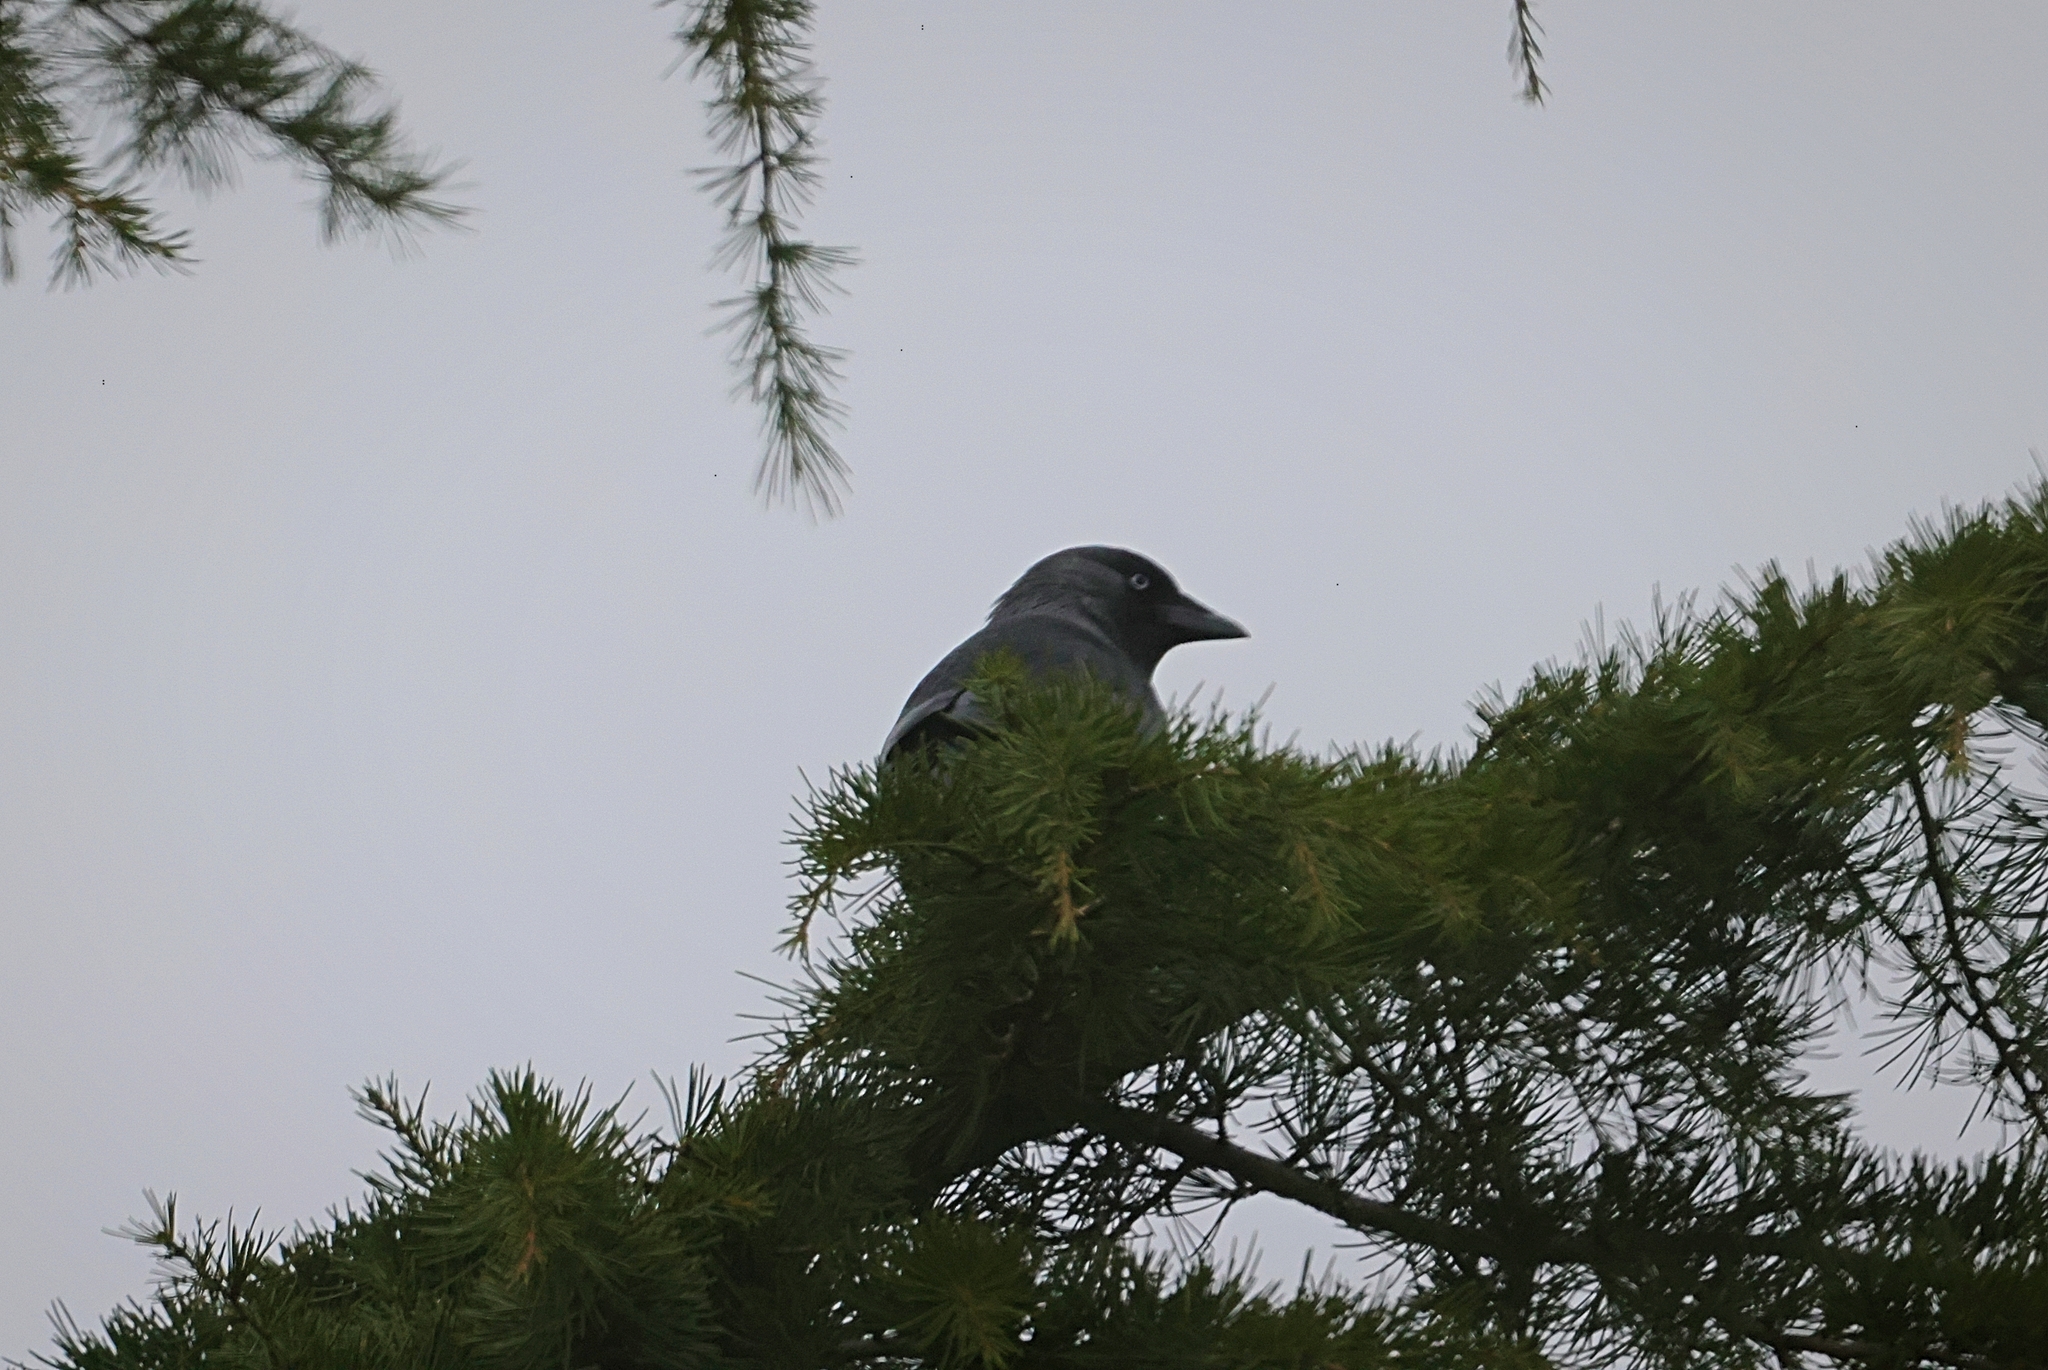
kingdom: Animalia
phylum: Chordata
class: Aves
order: Passeriformes
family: Corvidae
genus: Coloeus
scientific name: Coloeus monedula
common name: Western jackdaw
